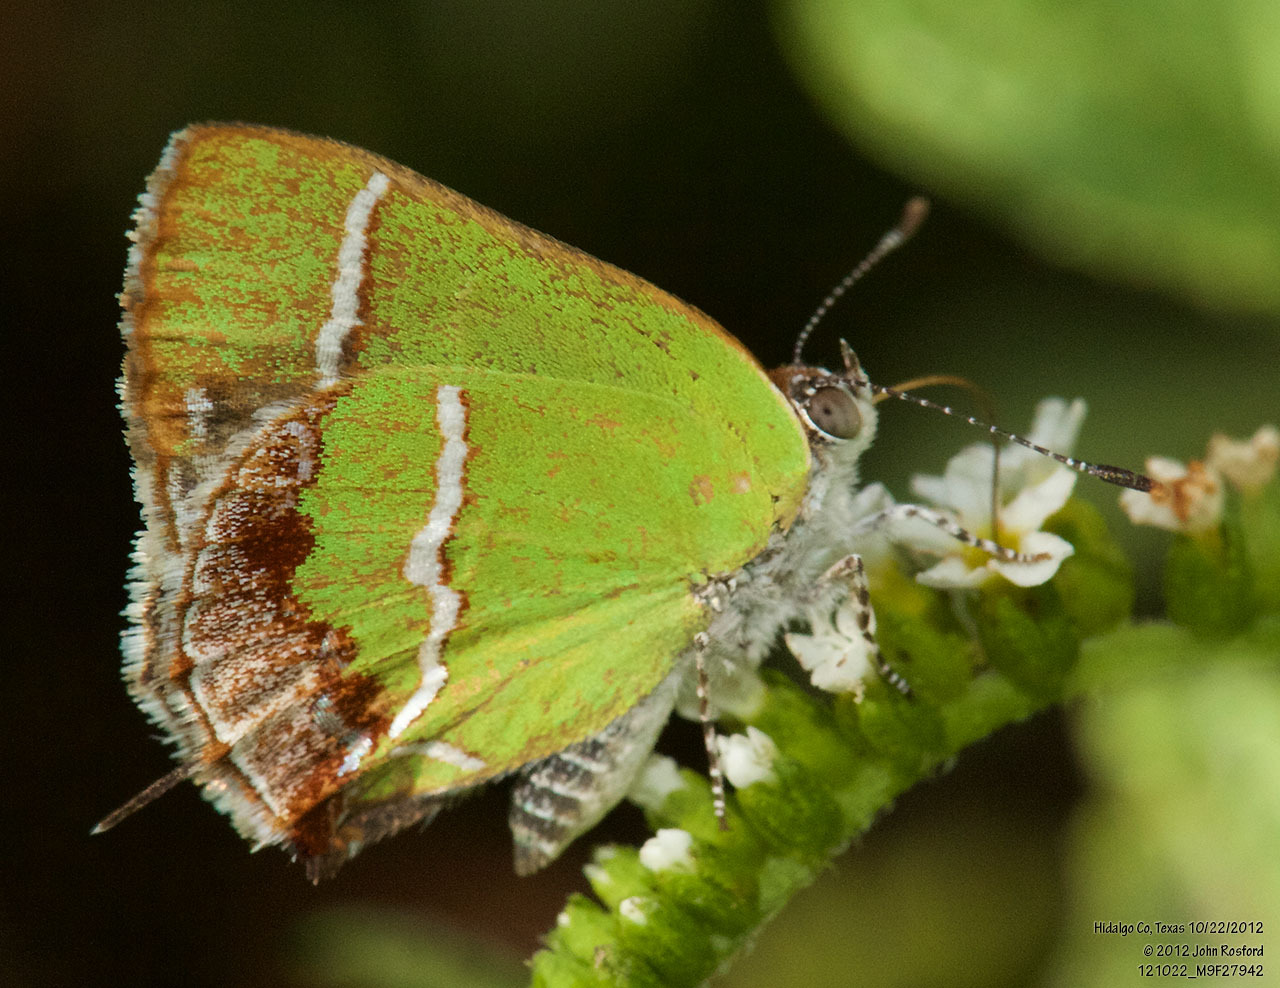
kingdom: Animalia
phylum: Arthropoda
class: Insecta
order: Lepidoptera
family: Lycaenidae
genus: Chlorostrymon
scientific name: Chlorostrymon simaethis
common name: Silver-banded hairstreak
